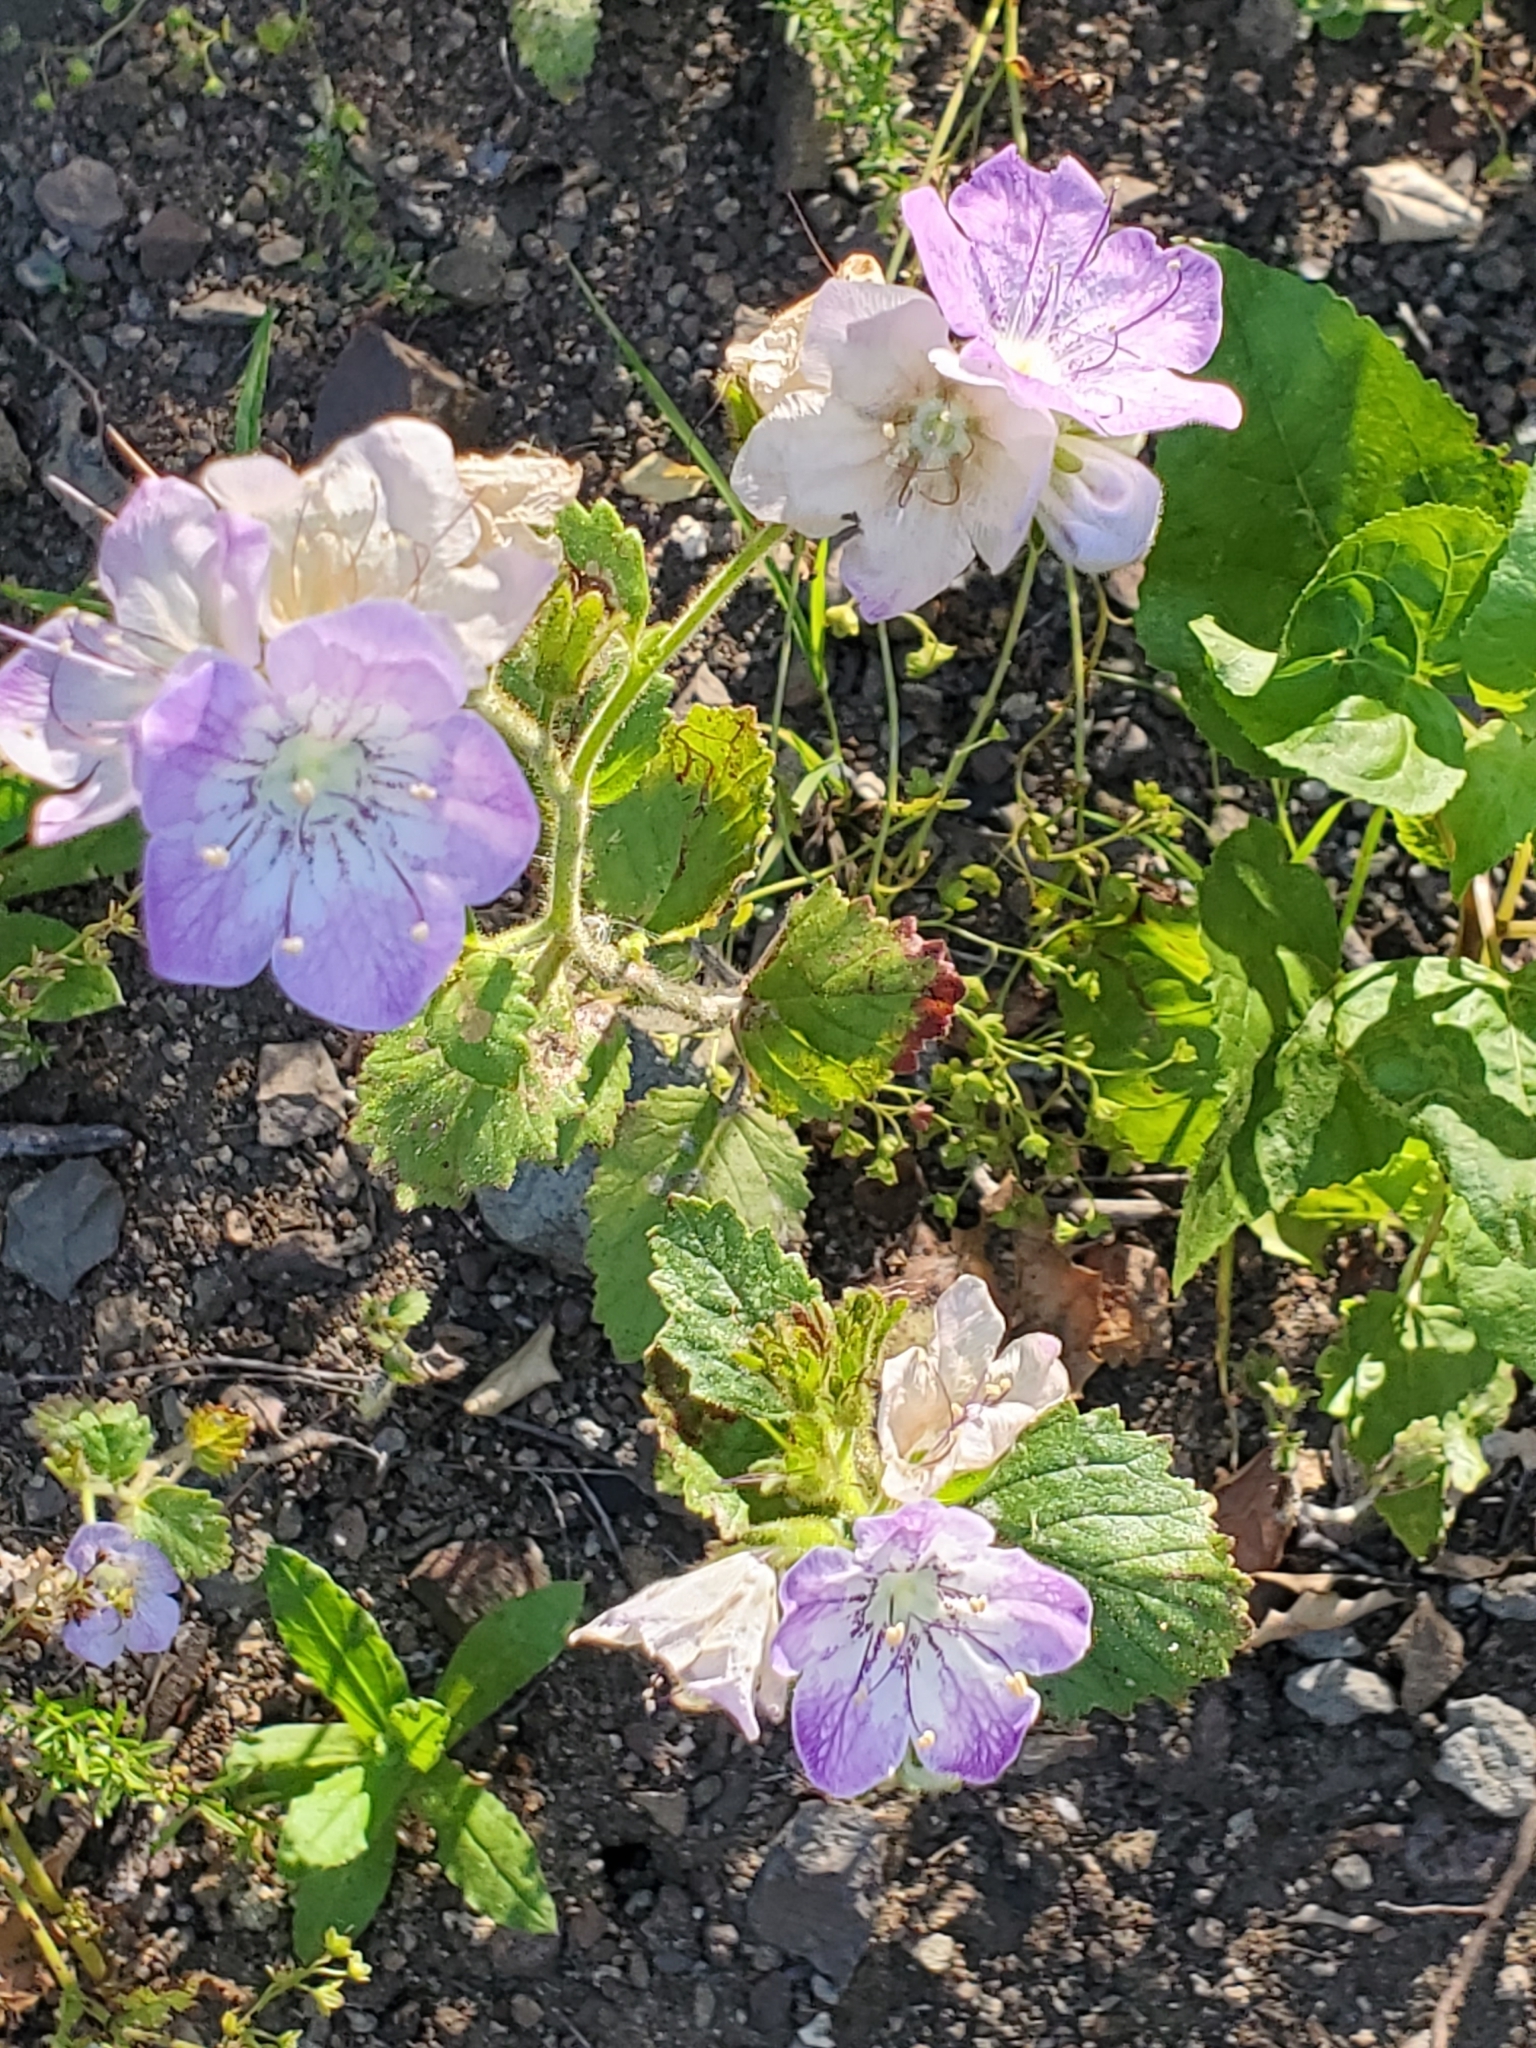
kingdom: Plantae
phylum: Tracheophyta
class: Magnoliopsida
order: Boraginales
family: Hydrophyllaceae
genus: Phacelia
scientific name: Phacelia grandiflora
